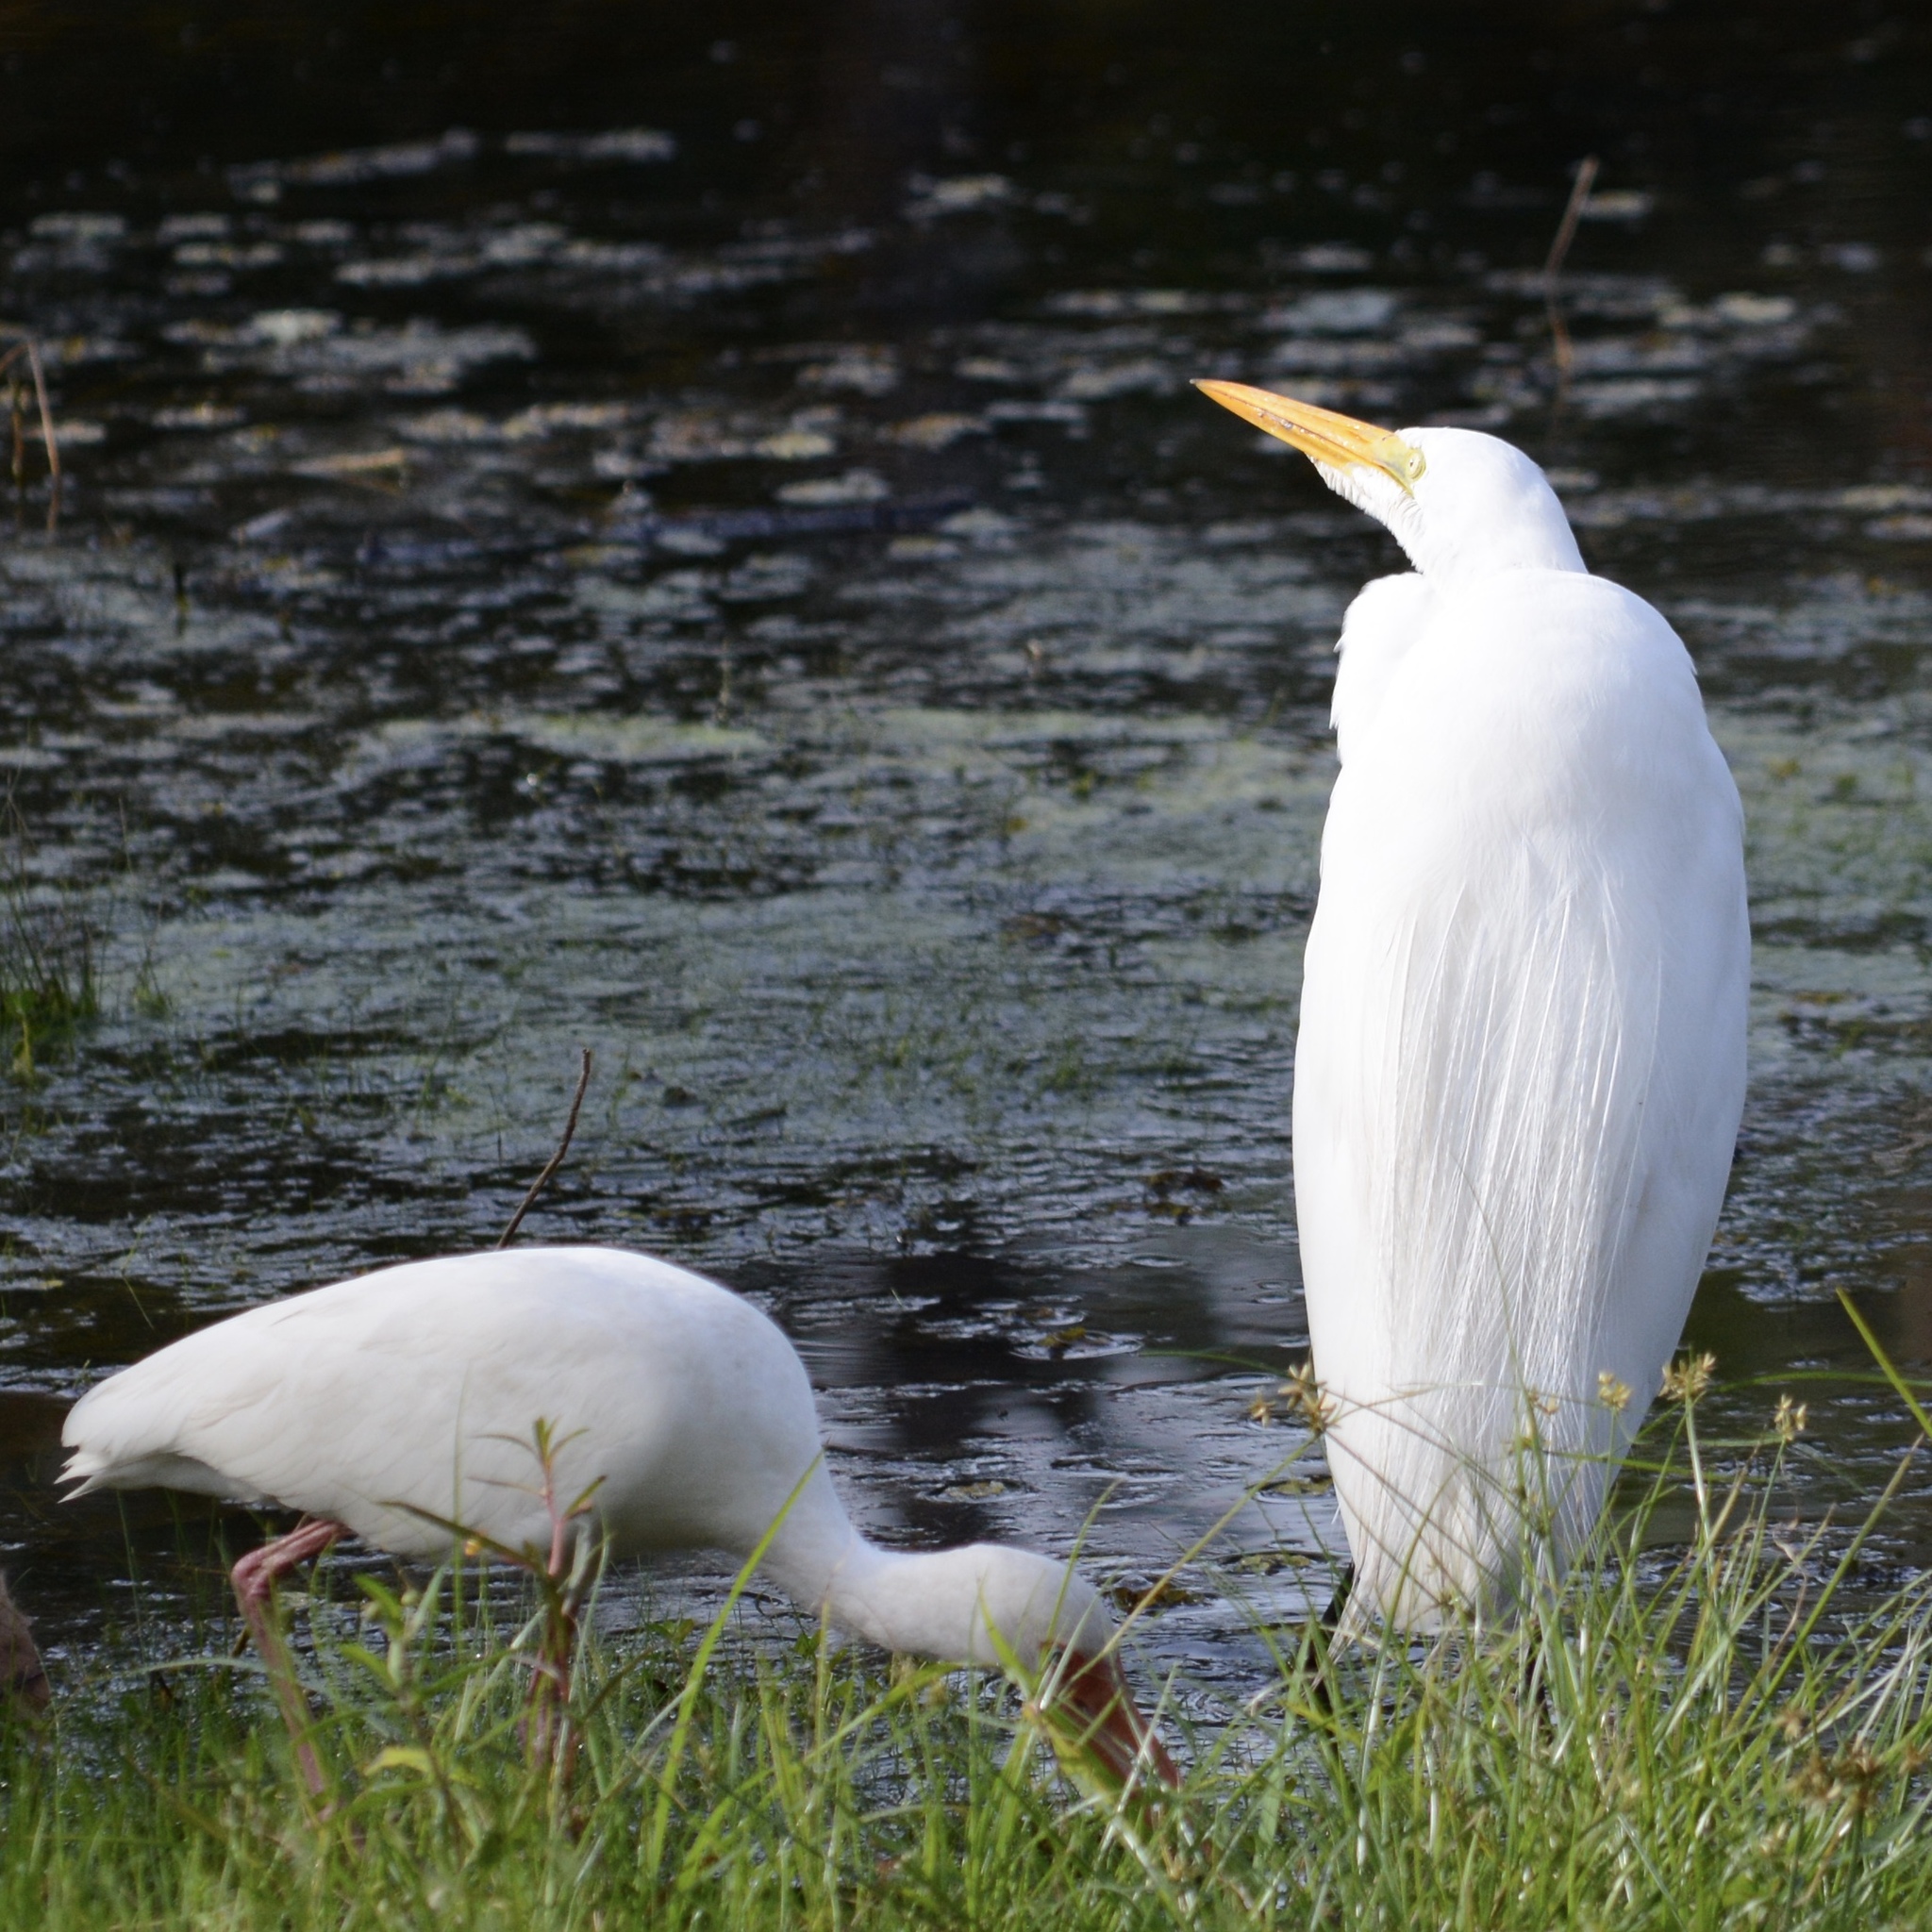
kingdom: Animalia
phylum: Chordata
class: Aves
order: Pelecaniformes
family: Ardeidae
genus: Ardea
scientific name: Ardea alba
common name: Great egret
